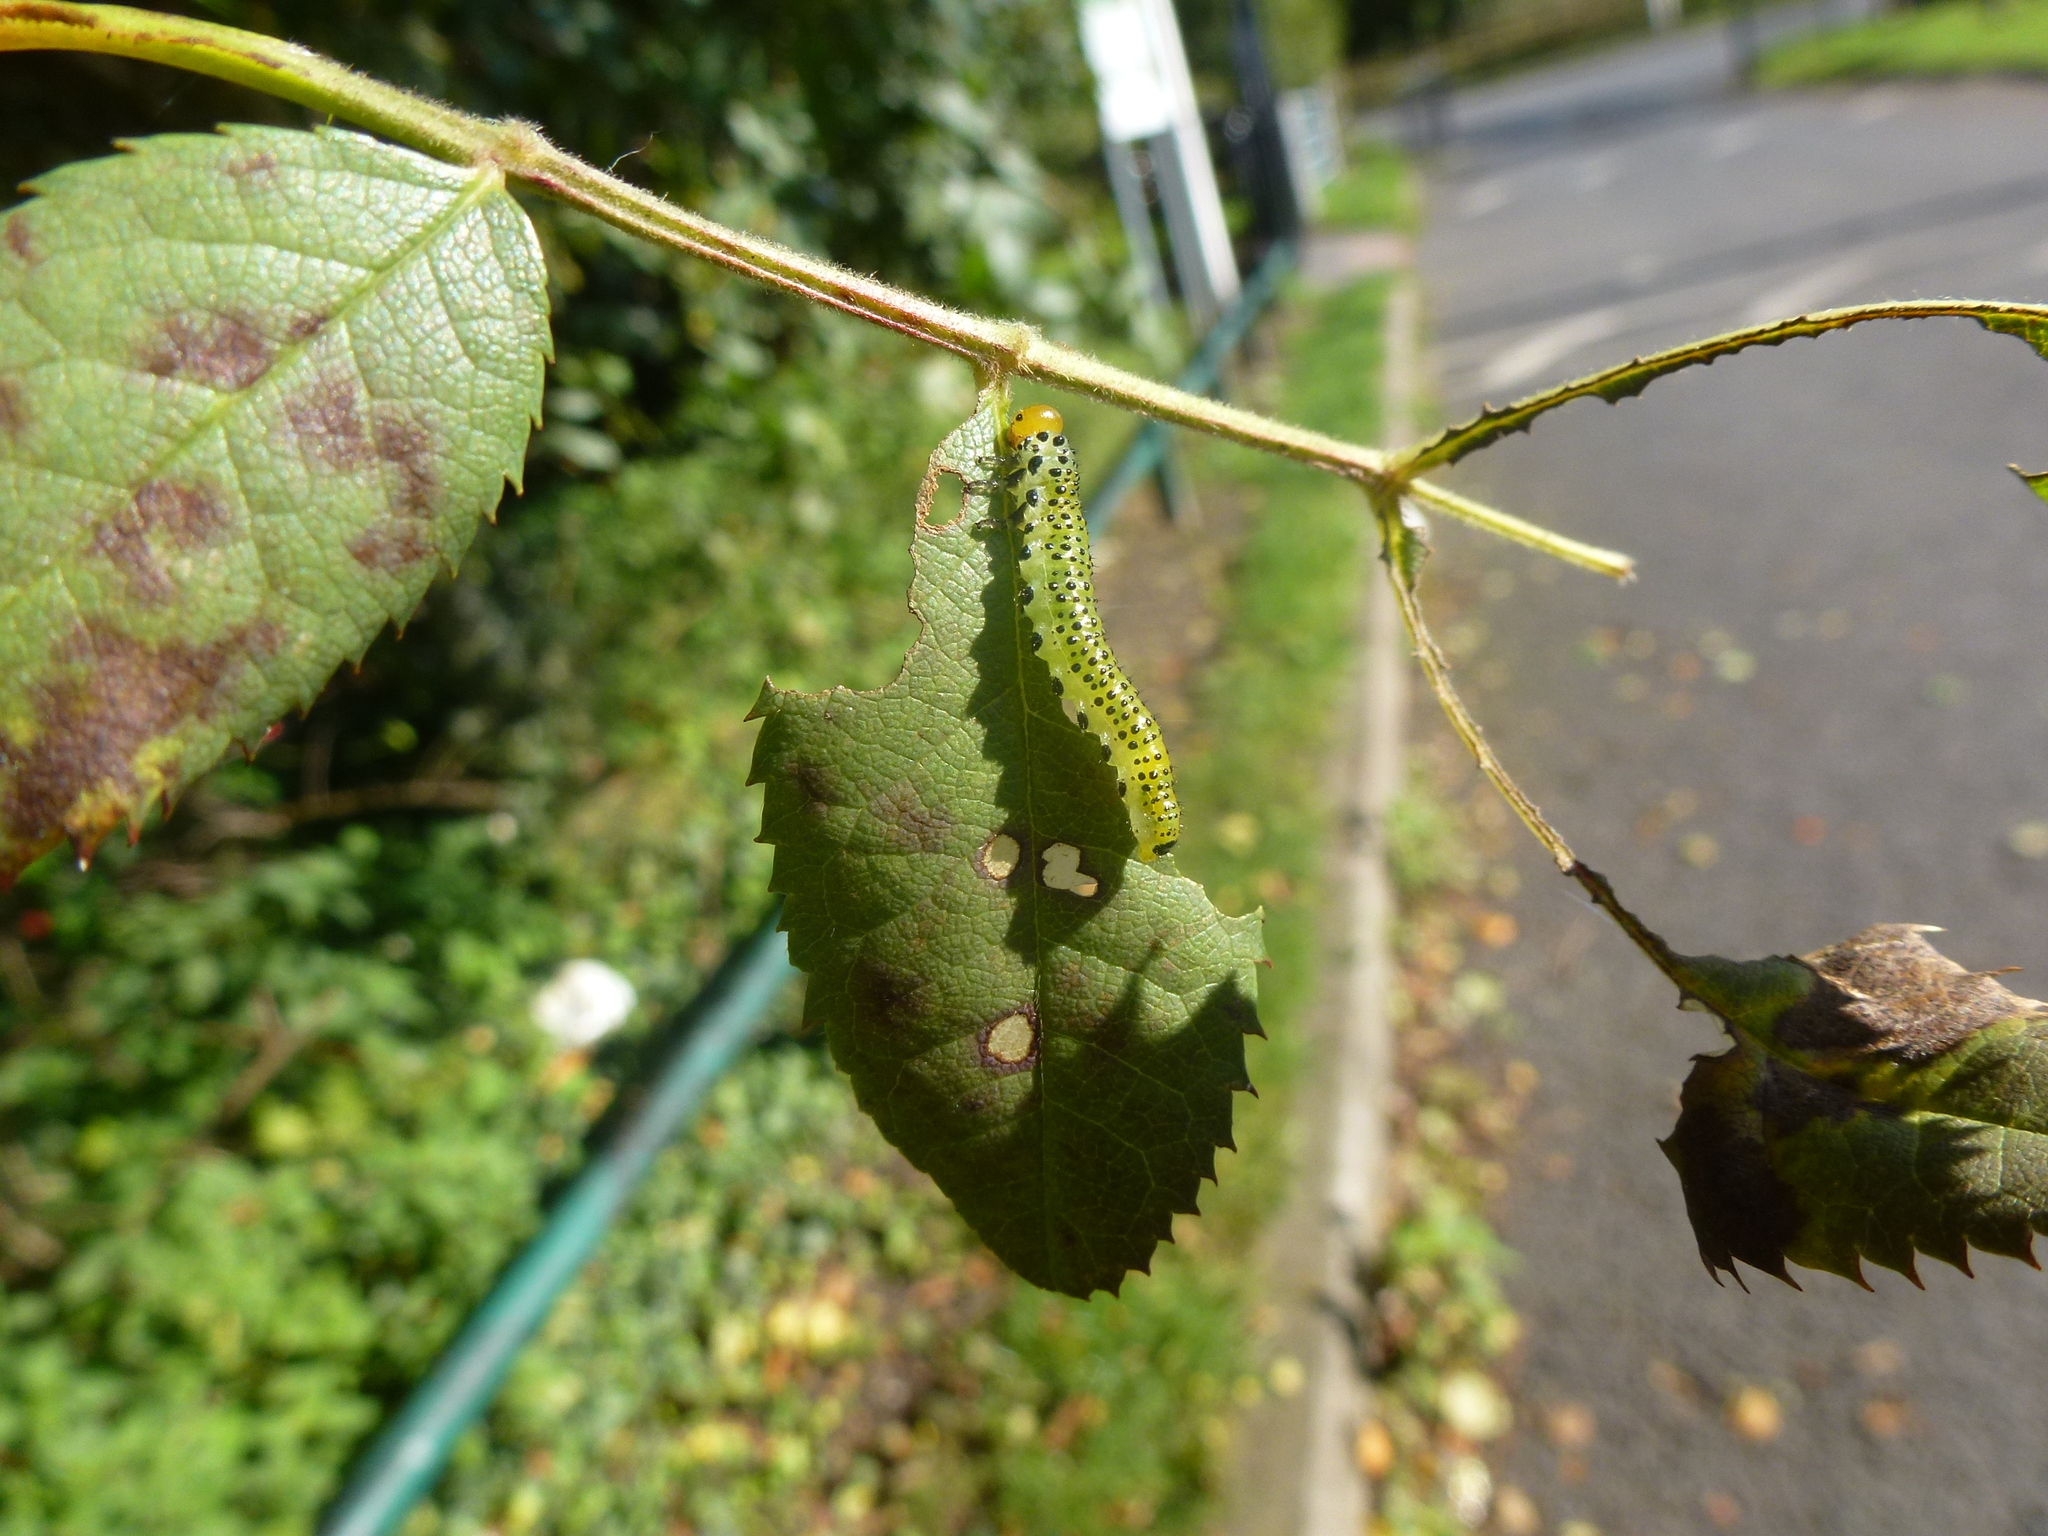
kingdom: Animalia
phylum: Arthropoda
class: Insecta
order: Hymenoptera
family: Argidae
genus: Arge
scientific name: Arge pagana
